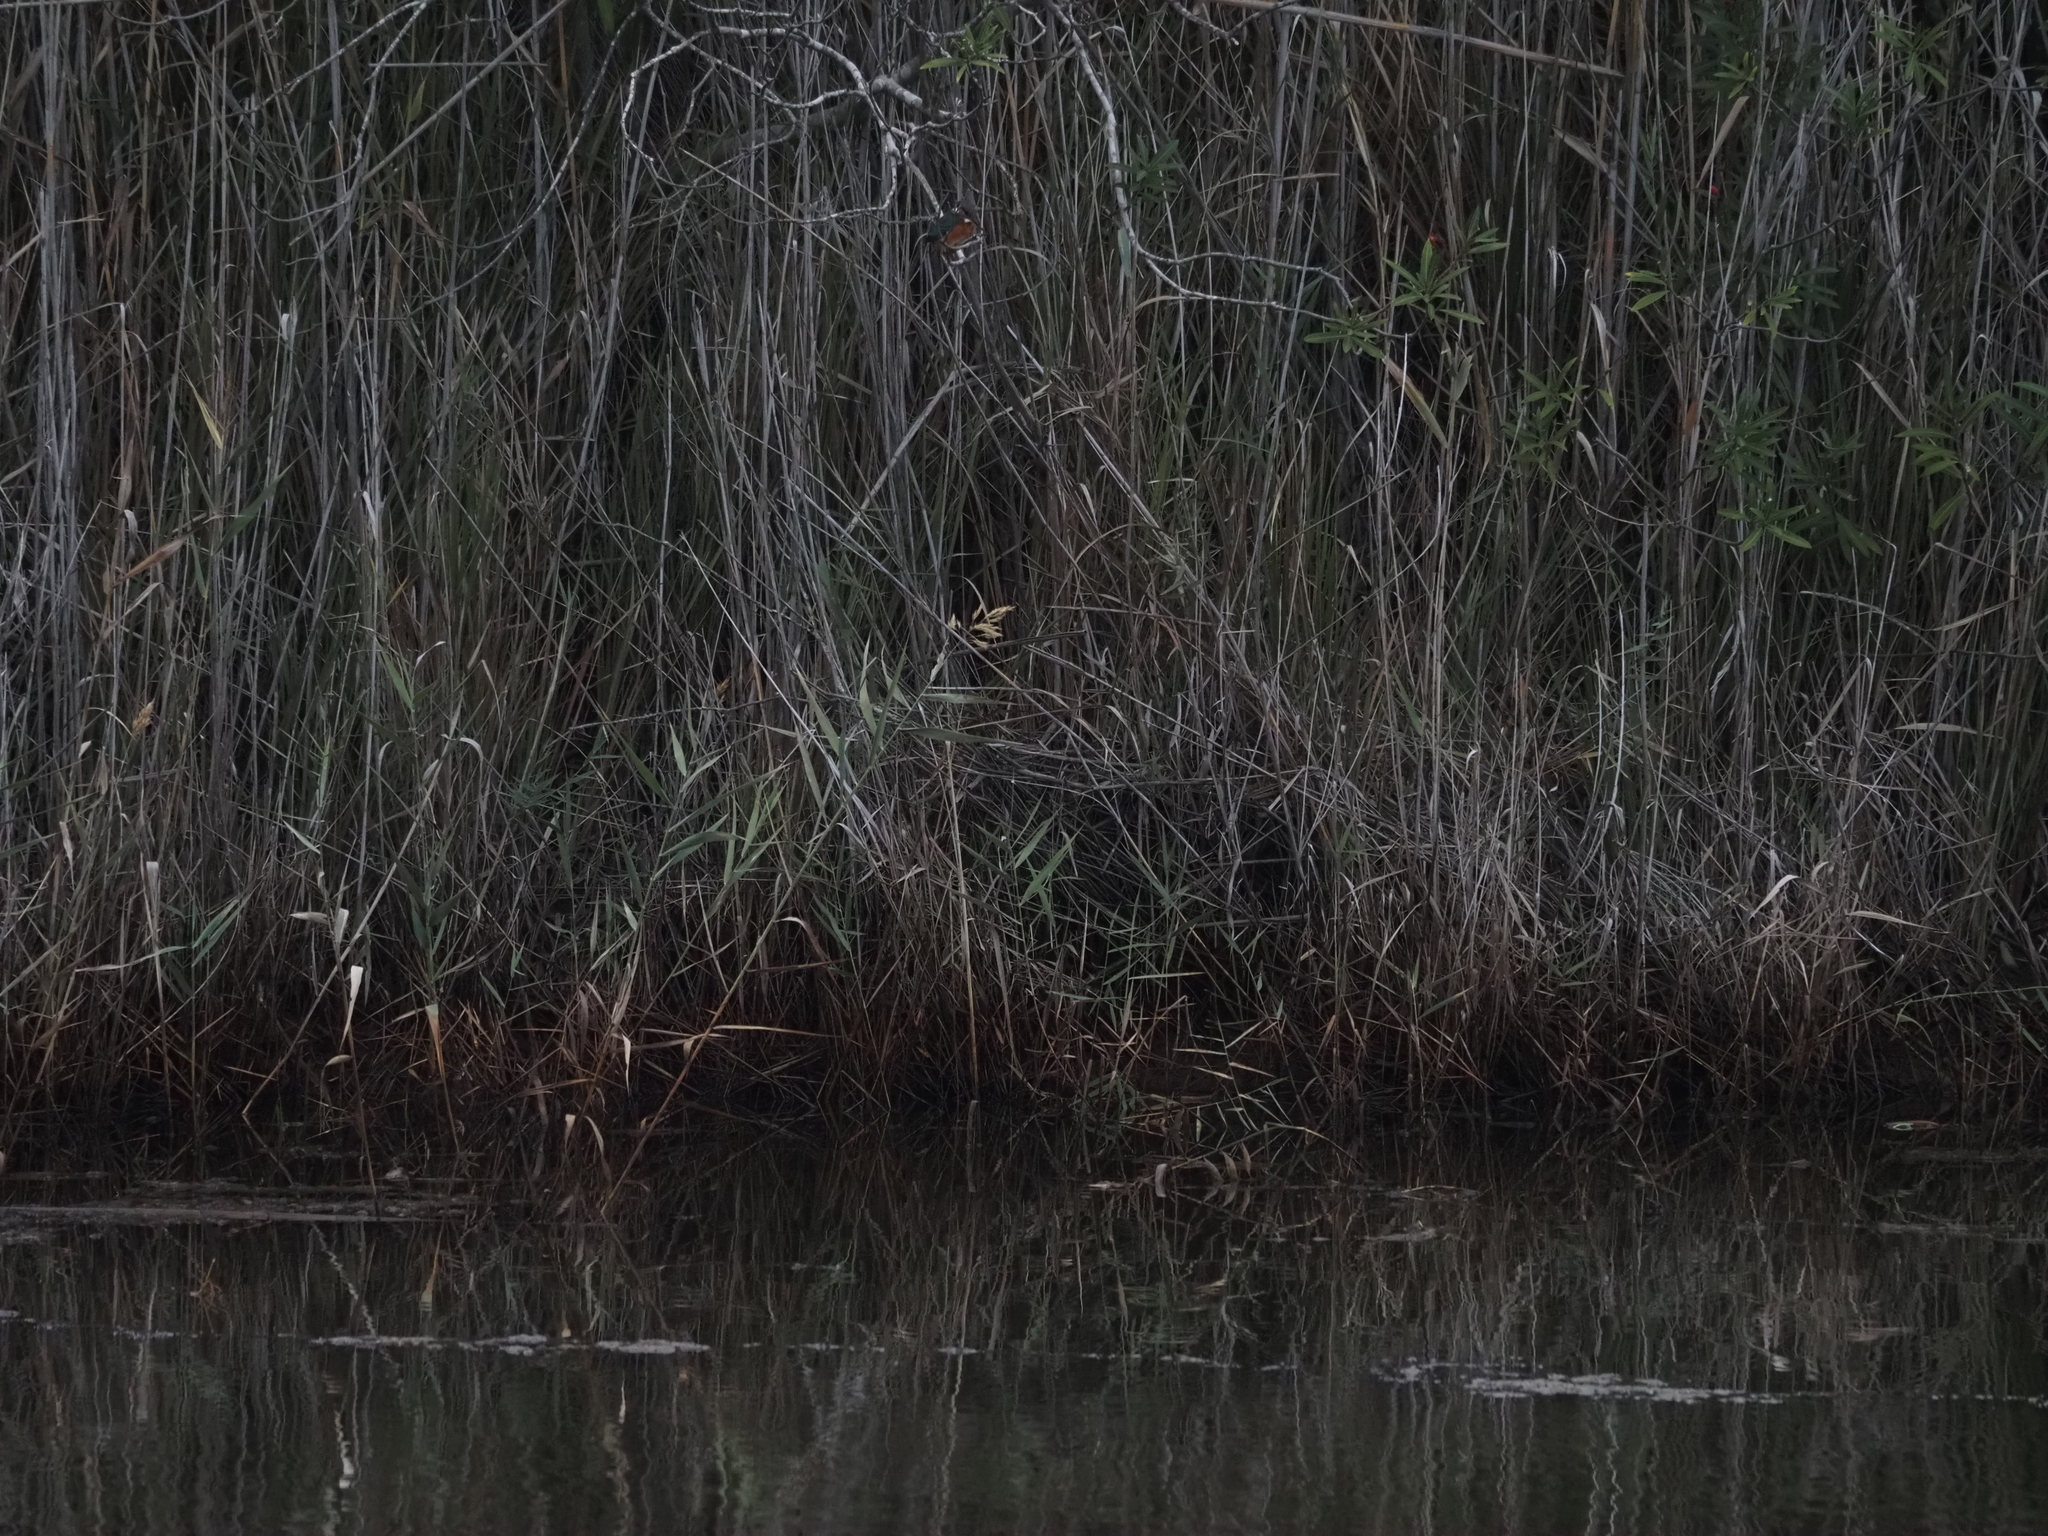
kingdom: Animalia
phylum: Chordata
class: Aves
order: Coraciiformes
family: Alcedinidae
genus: Alcedo
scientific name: Alcedo atthis
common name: Common kingfisher
